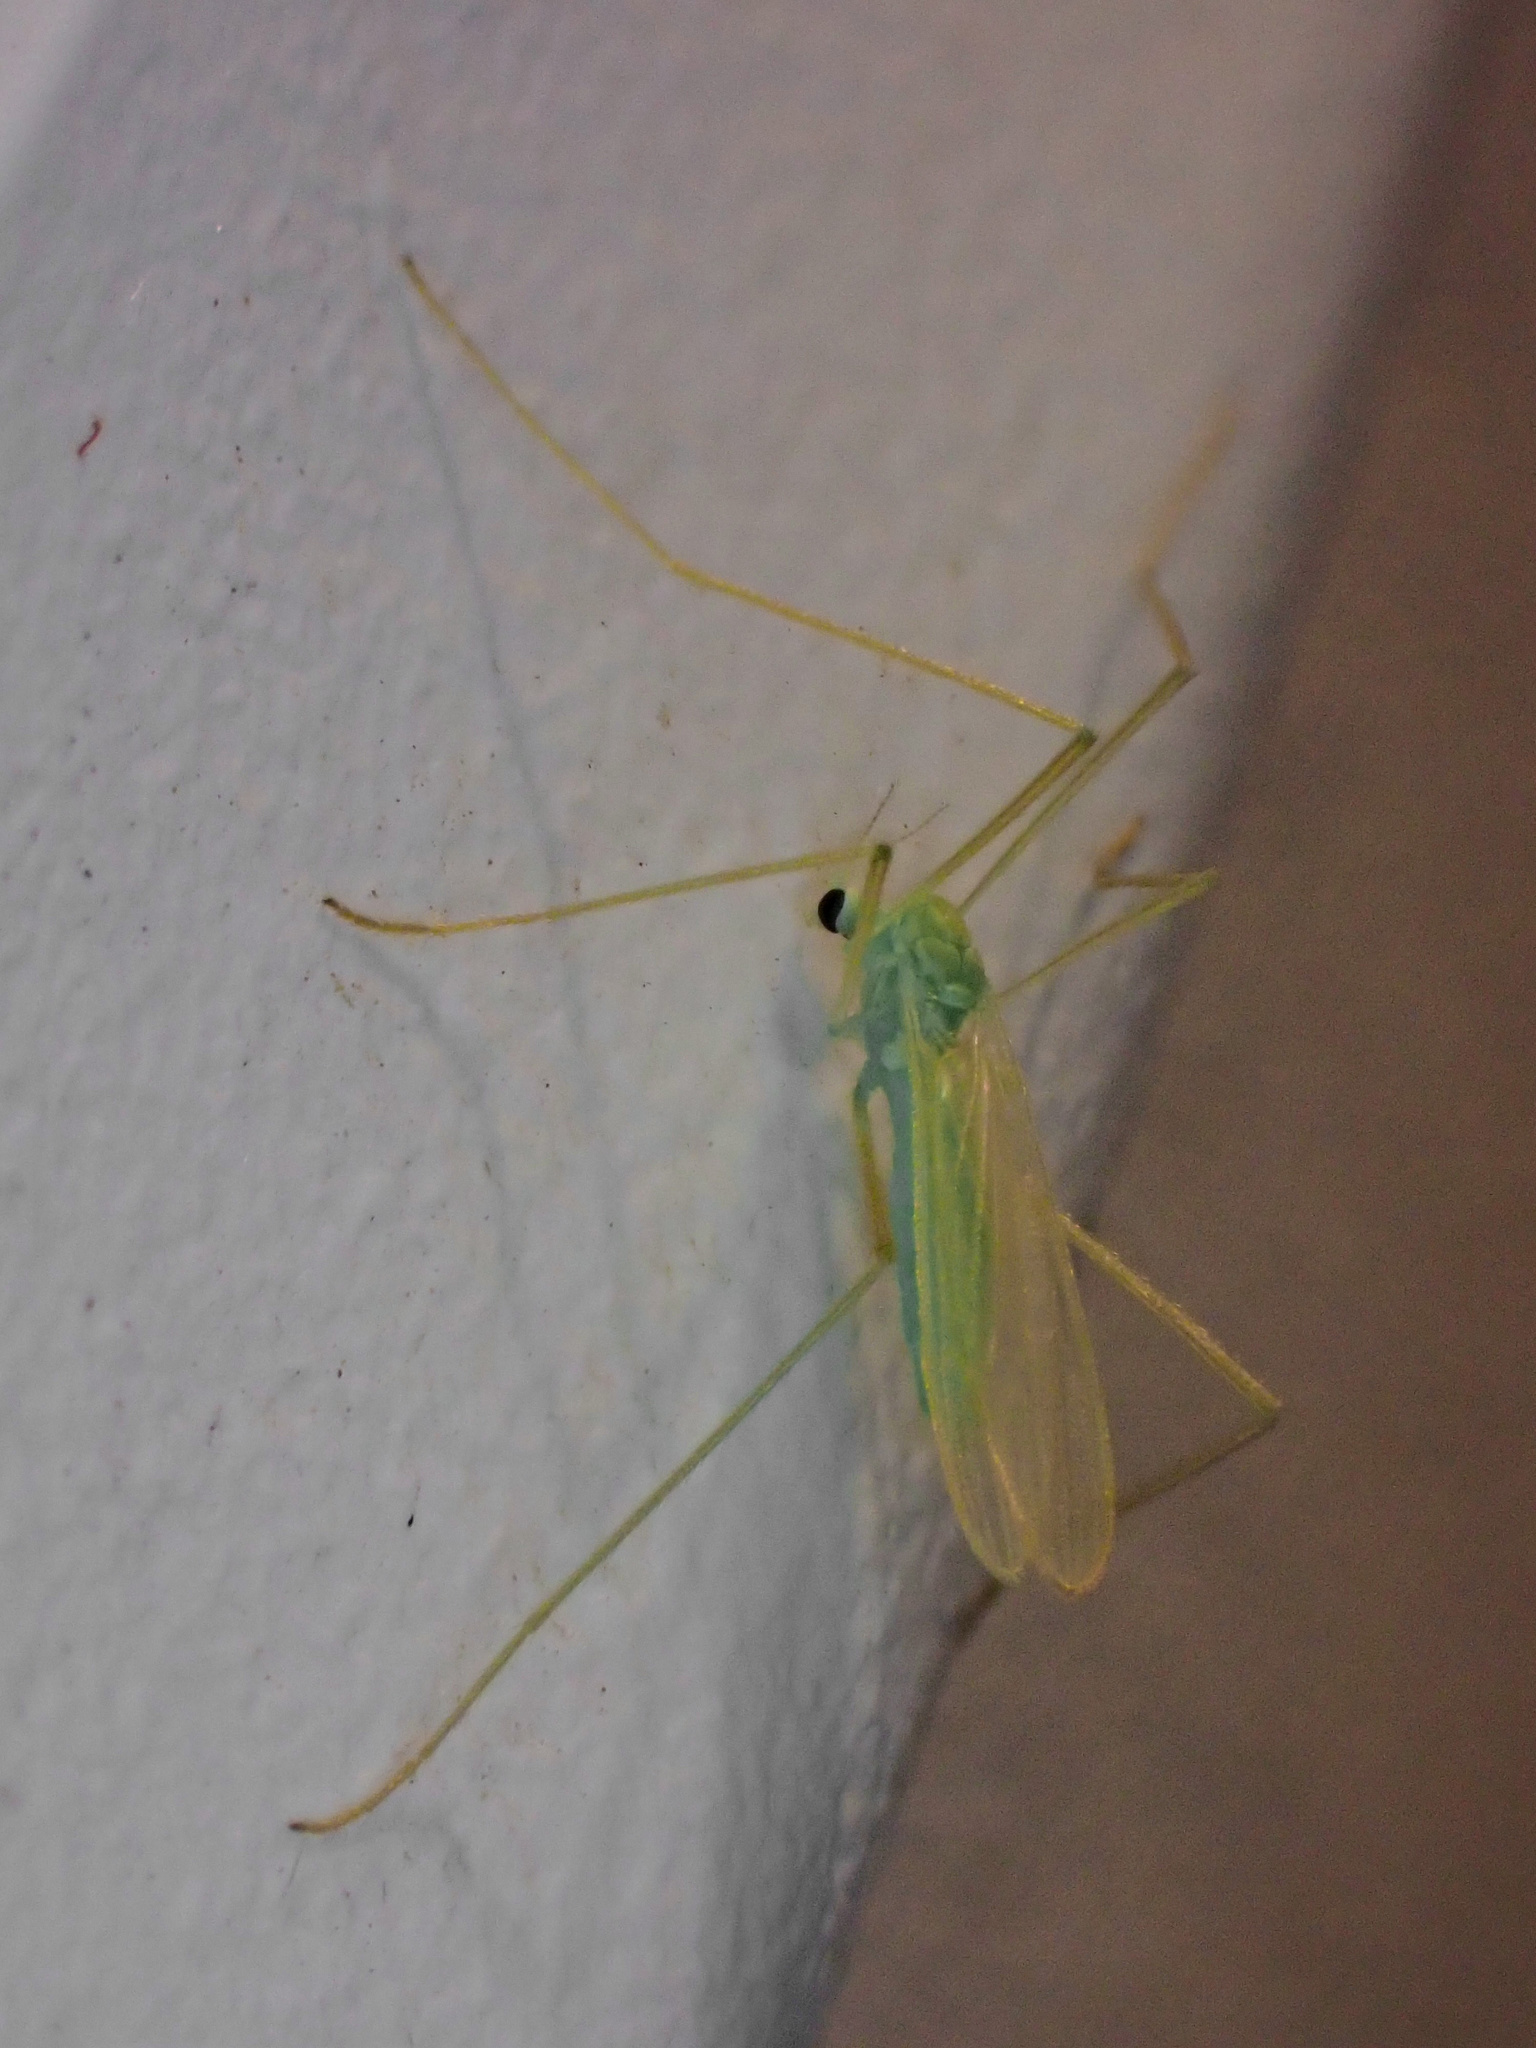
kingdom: Animalia
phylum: Arthropoda
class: Insecta
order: Diptera
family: Limoniidae
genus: Erioptera
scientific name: Erioptera
